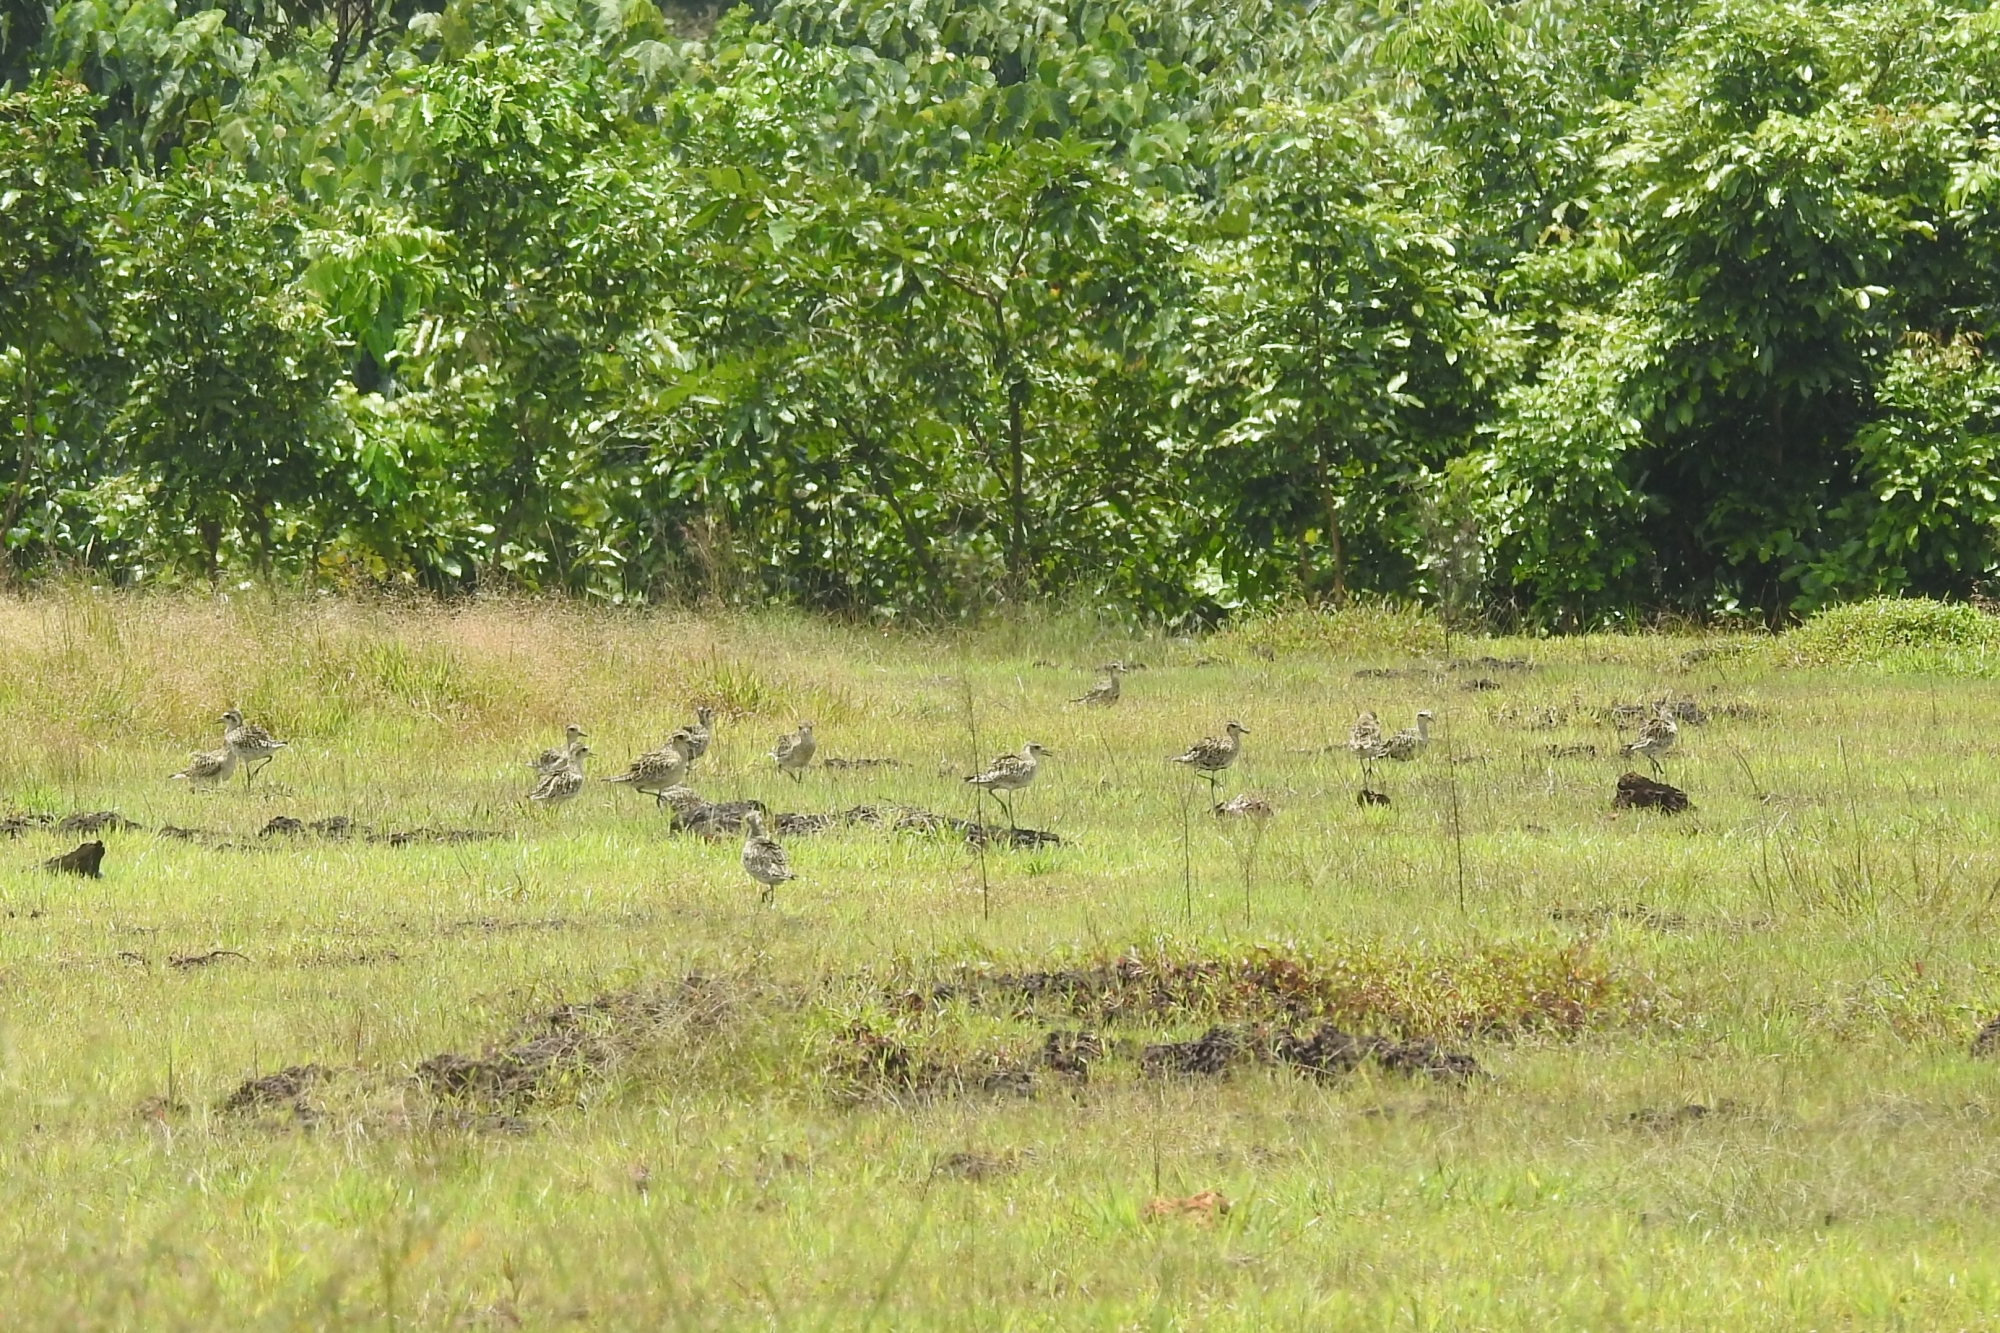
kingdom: Animalia
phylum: Chordata
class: Aves
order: Charadriiformes
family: Charadriidae
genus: Pluvialis
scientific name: Pluvialis fulva
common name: Pacific golden plover
